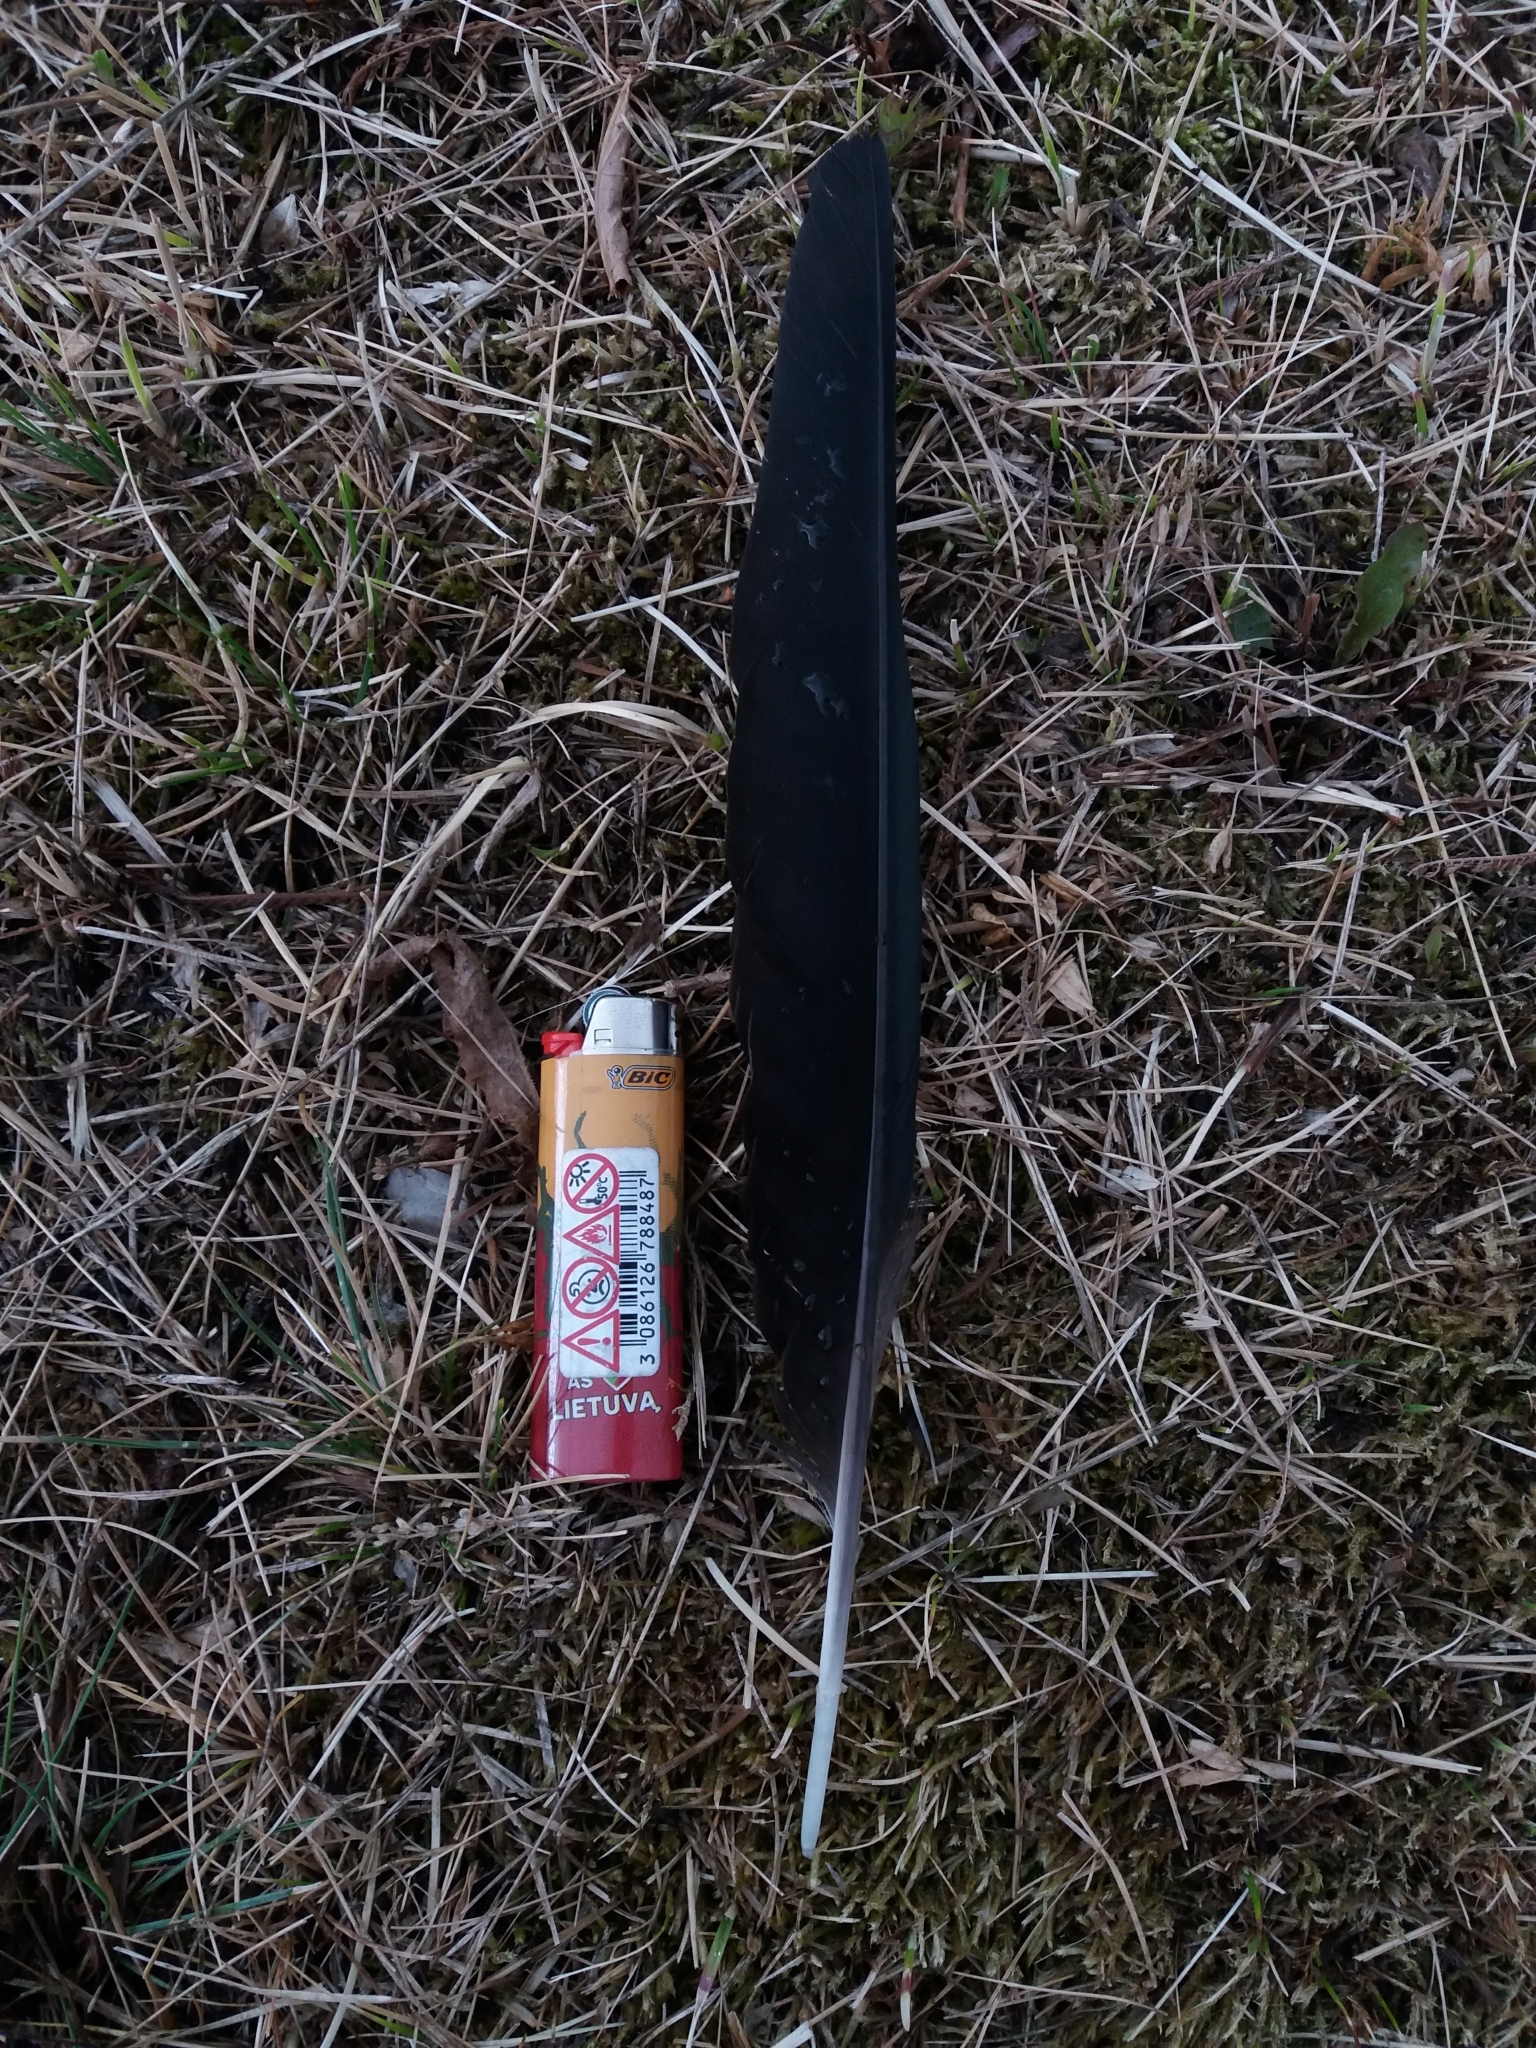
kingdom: Animalia
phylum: Chordata
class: Aves
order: Passeriformes
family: Corvidae
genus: Corvus
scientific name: Corvus cornix
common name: Hooded crow
